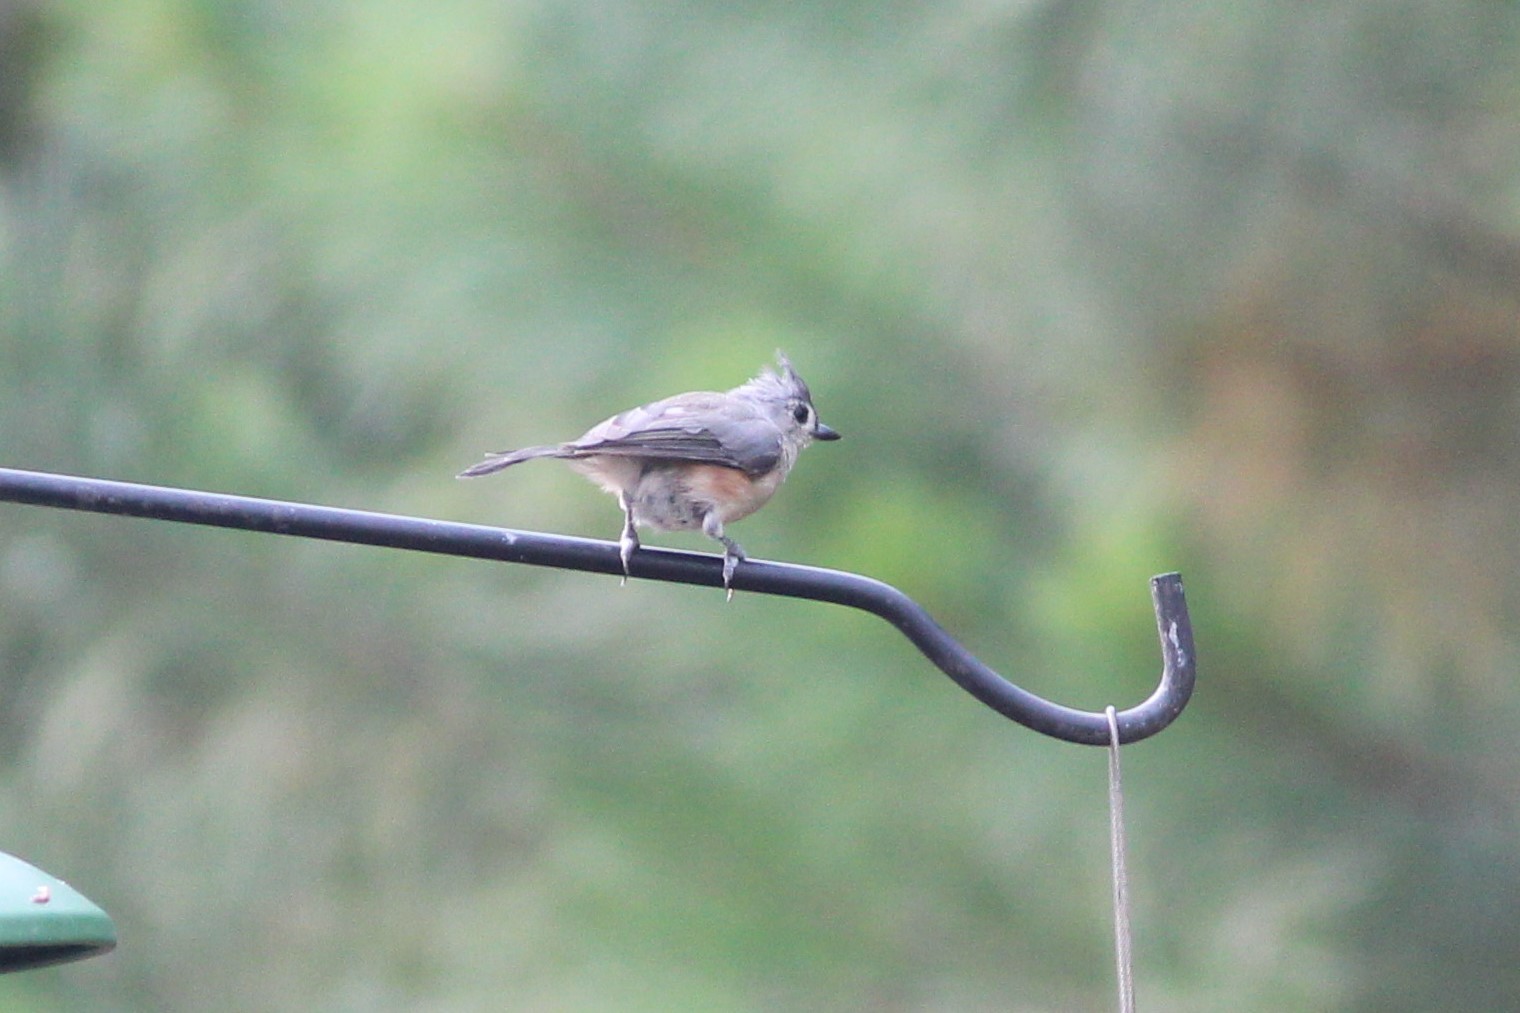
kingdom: Animalia
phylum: Chordata
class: Aves
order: Passeriformes
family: Paridae
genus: Baeolophus
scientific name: Baeolophus bicolor
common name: Tufted titmouse
